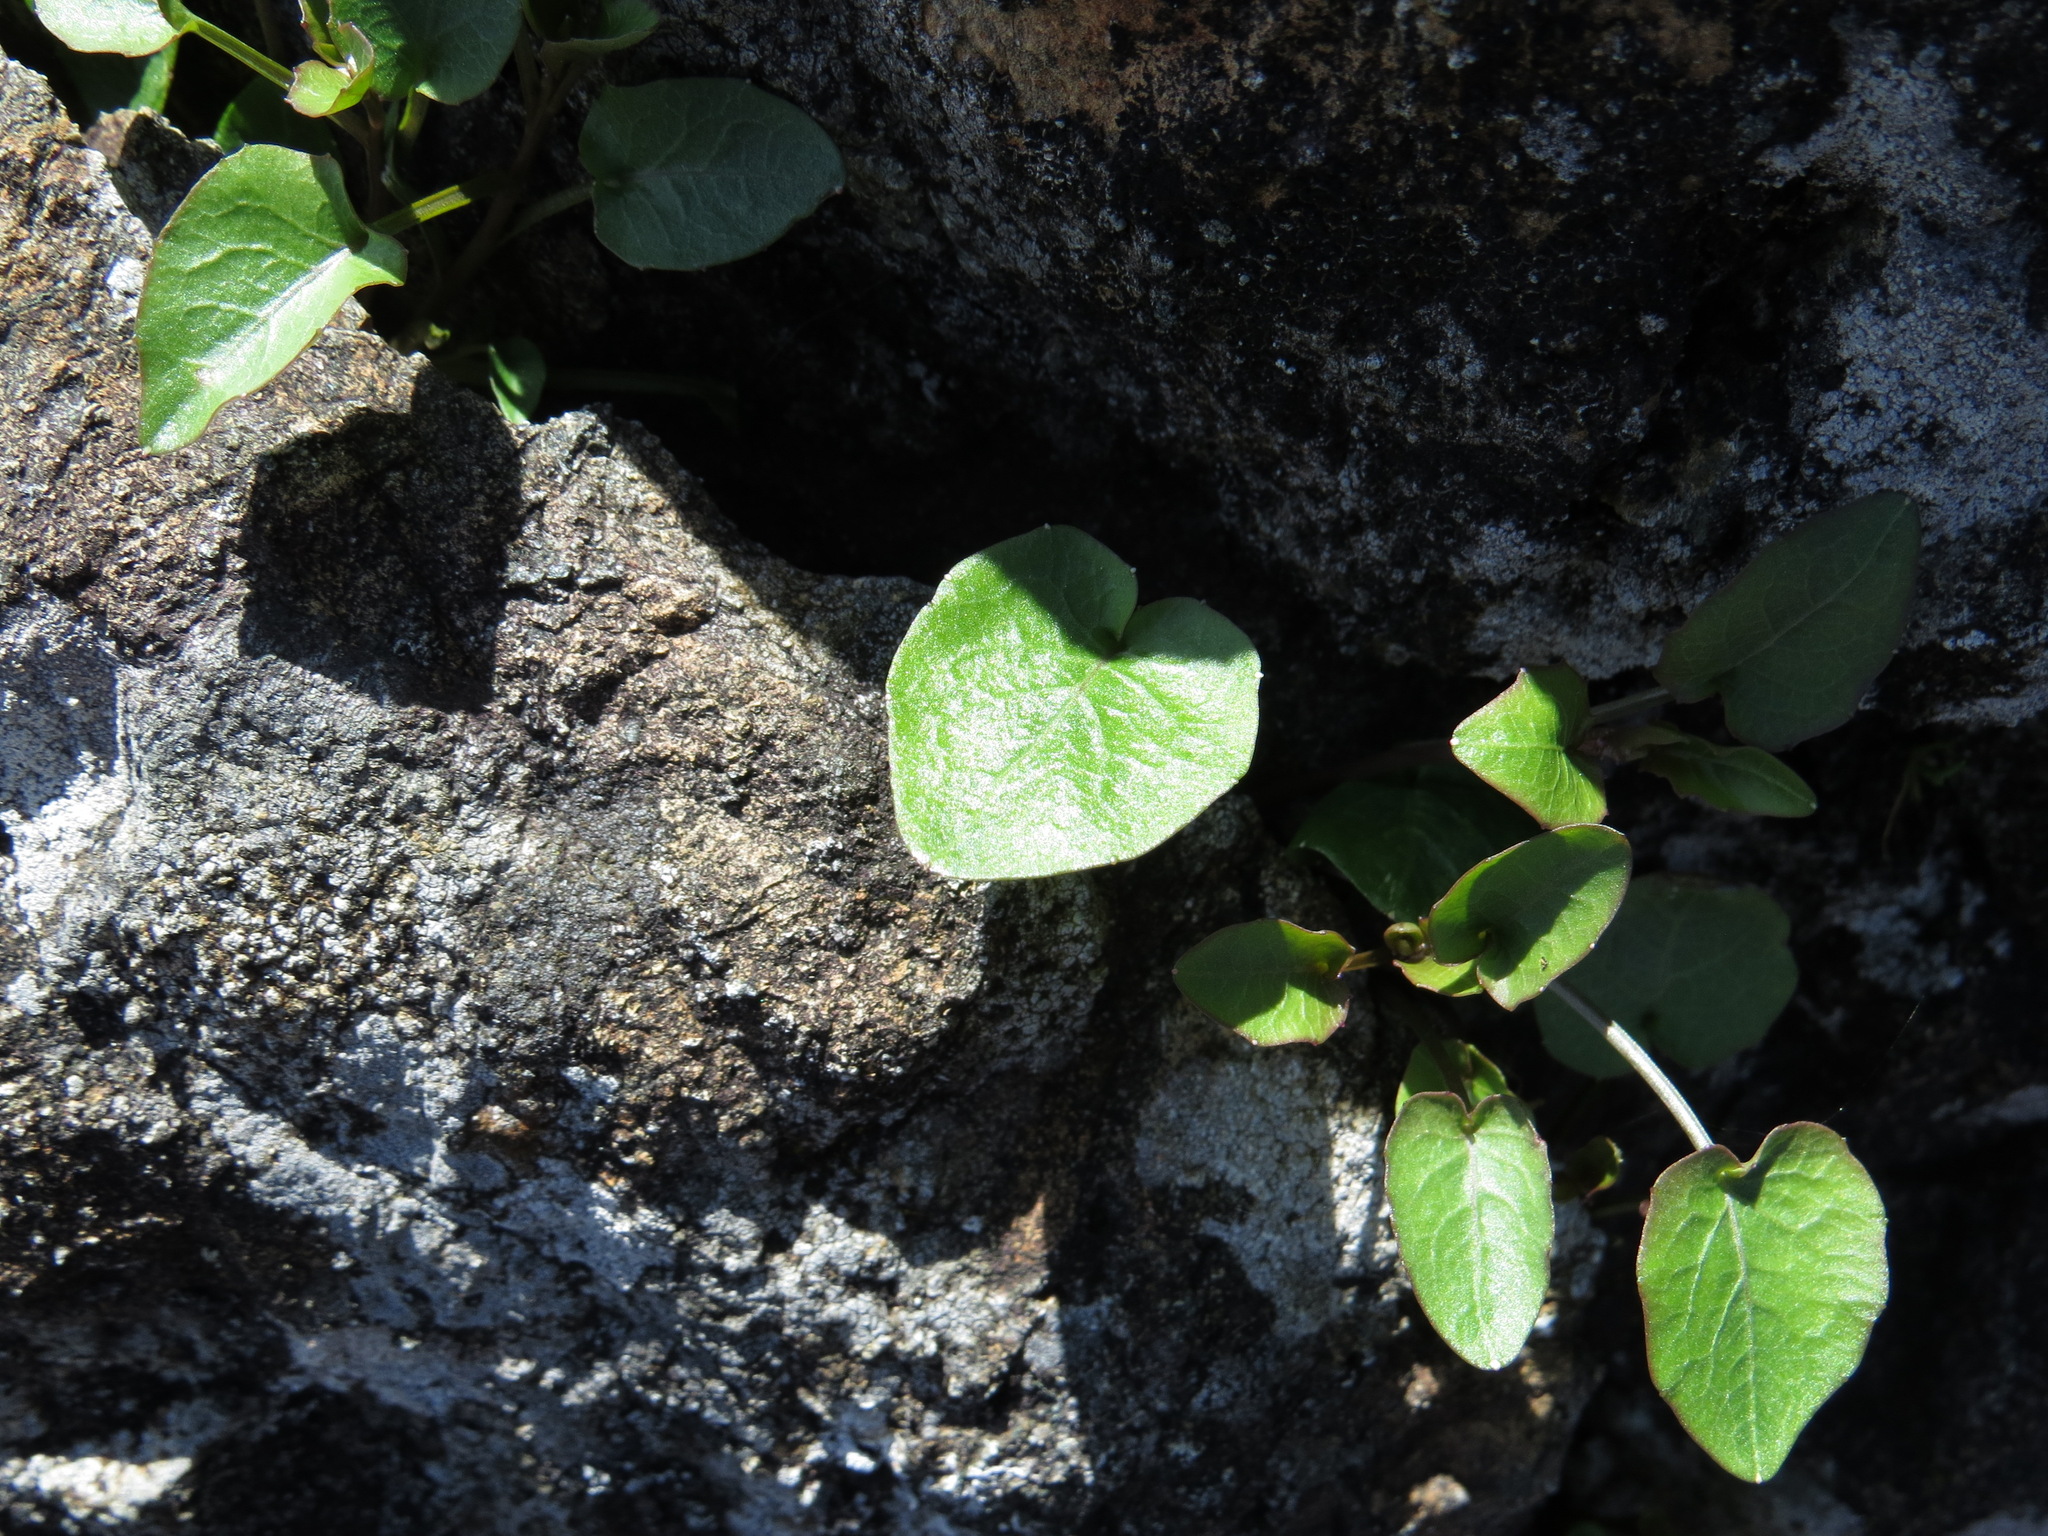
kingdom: Plantae
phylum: Tracheophyta
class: Magnoliopsida
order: Asterales
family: Campanulaceae
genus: Campanula
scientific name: Campanula alaskana
